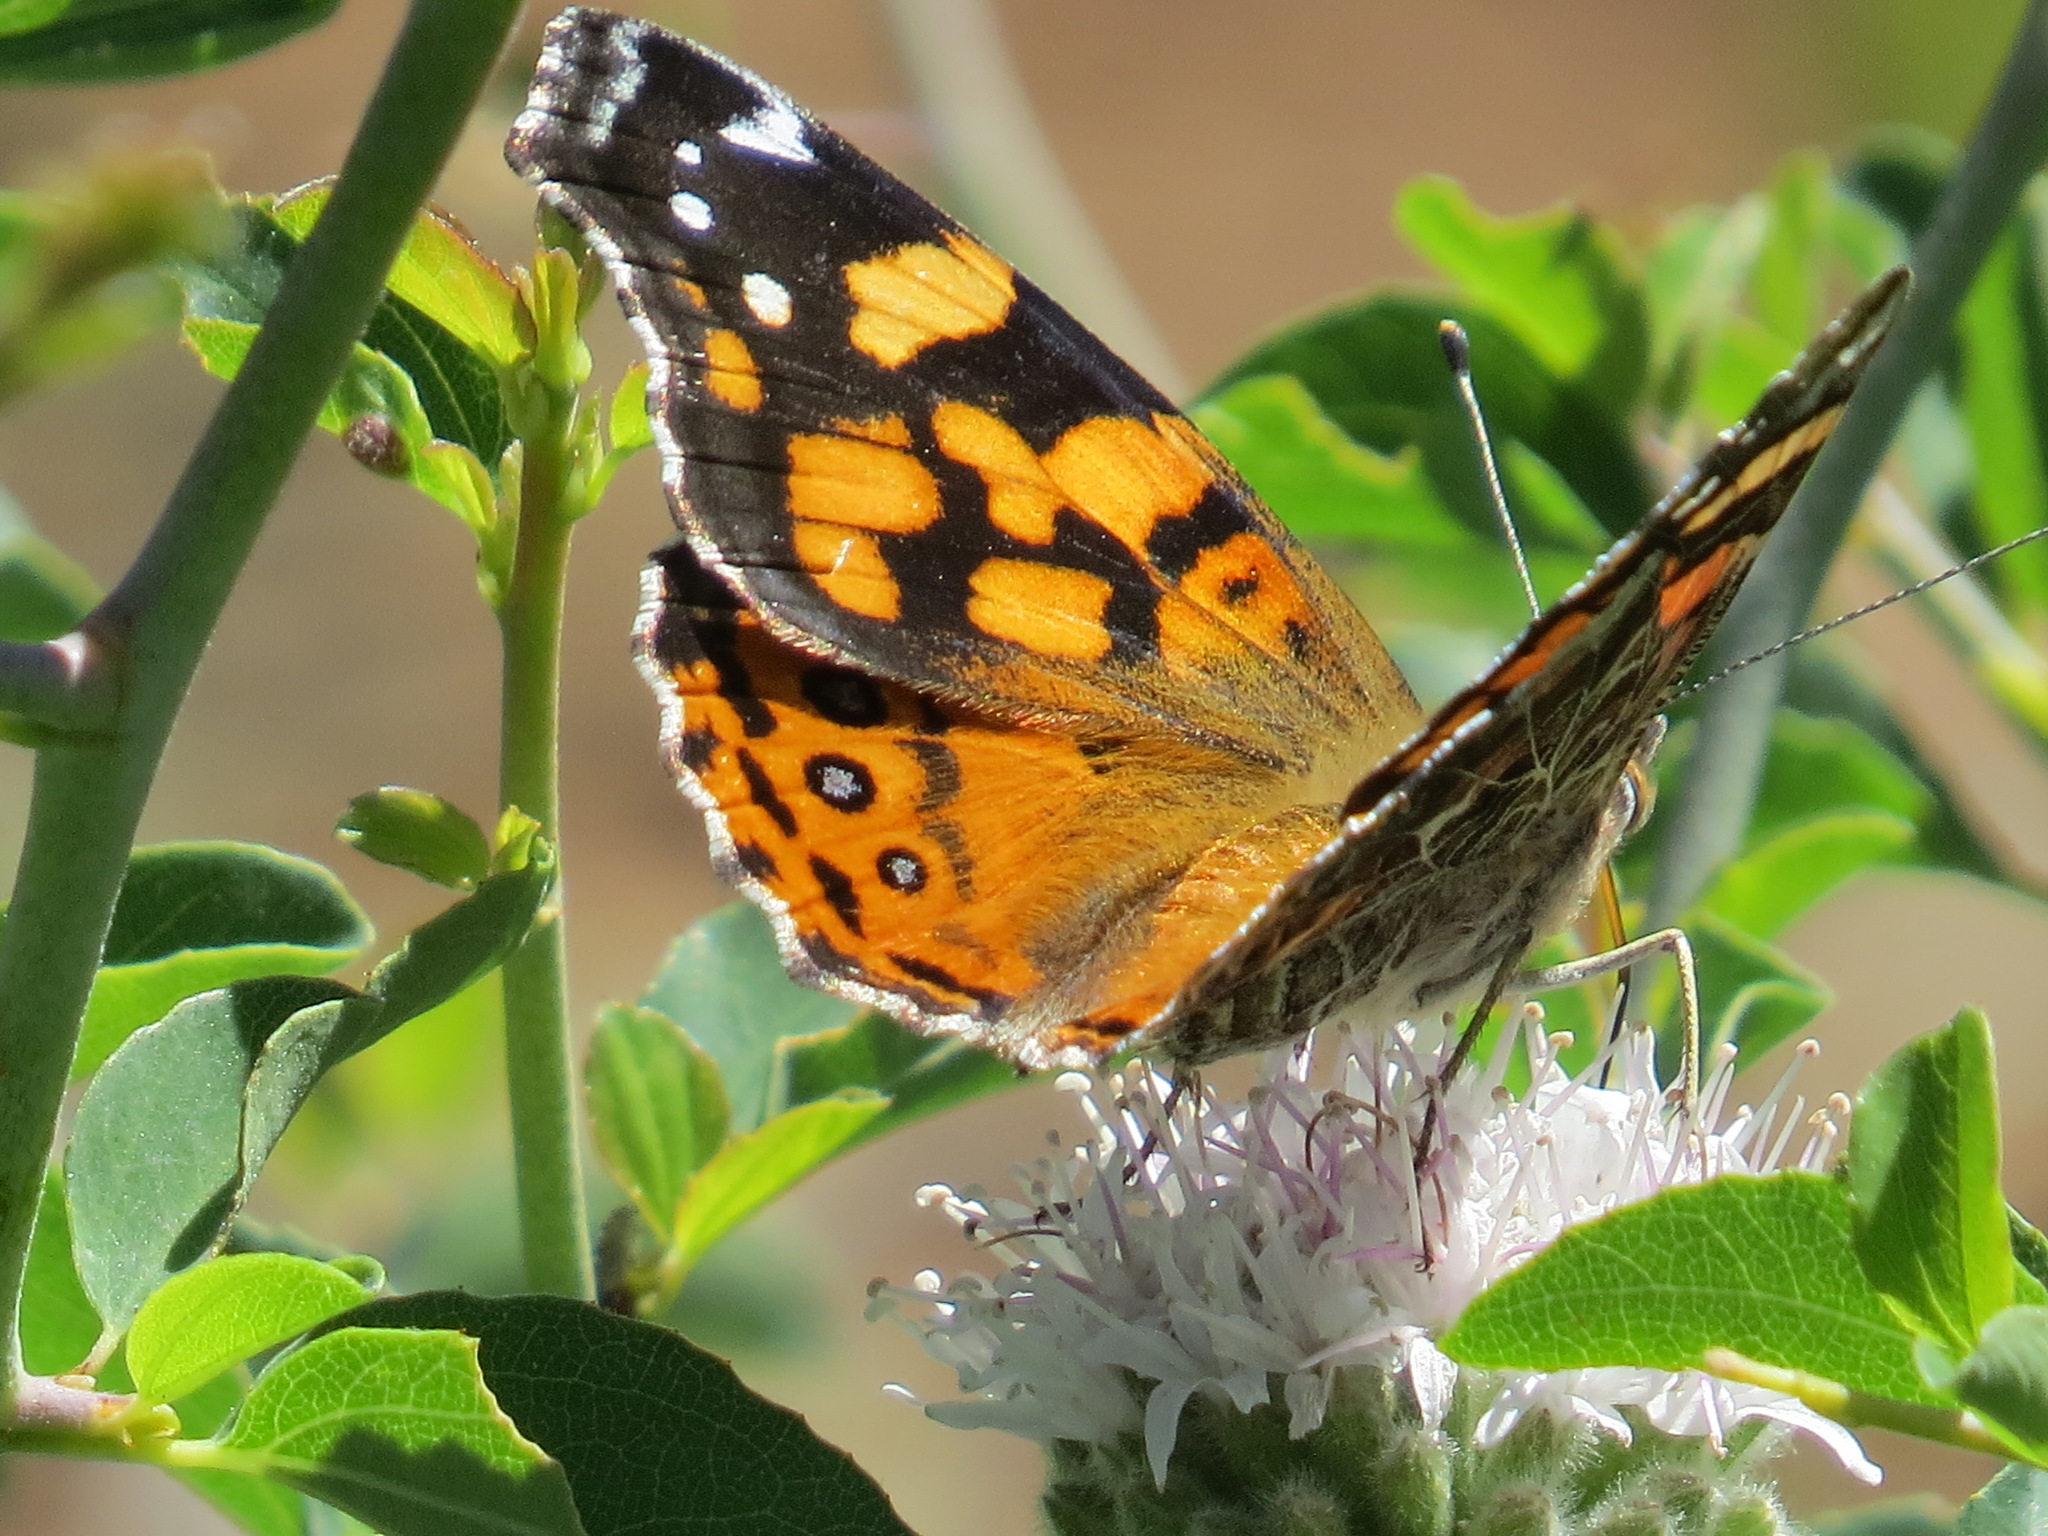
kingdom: Animalia
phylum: Arthropoda
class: Insecta
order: Lepidoptera
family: Nymphalidae
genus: Vanessa
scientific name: Vanessa annabella
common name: West coast lady
